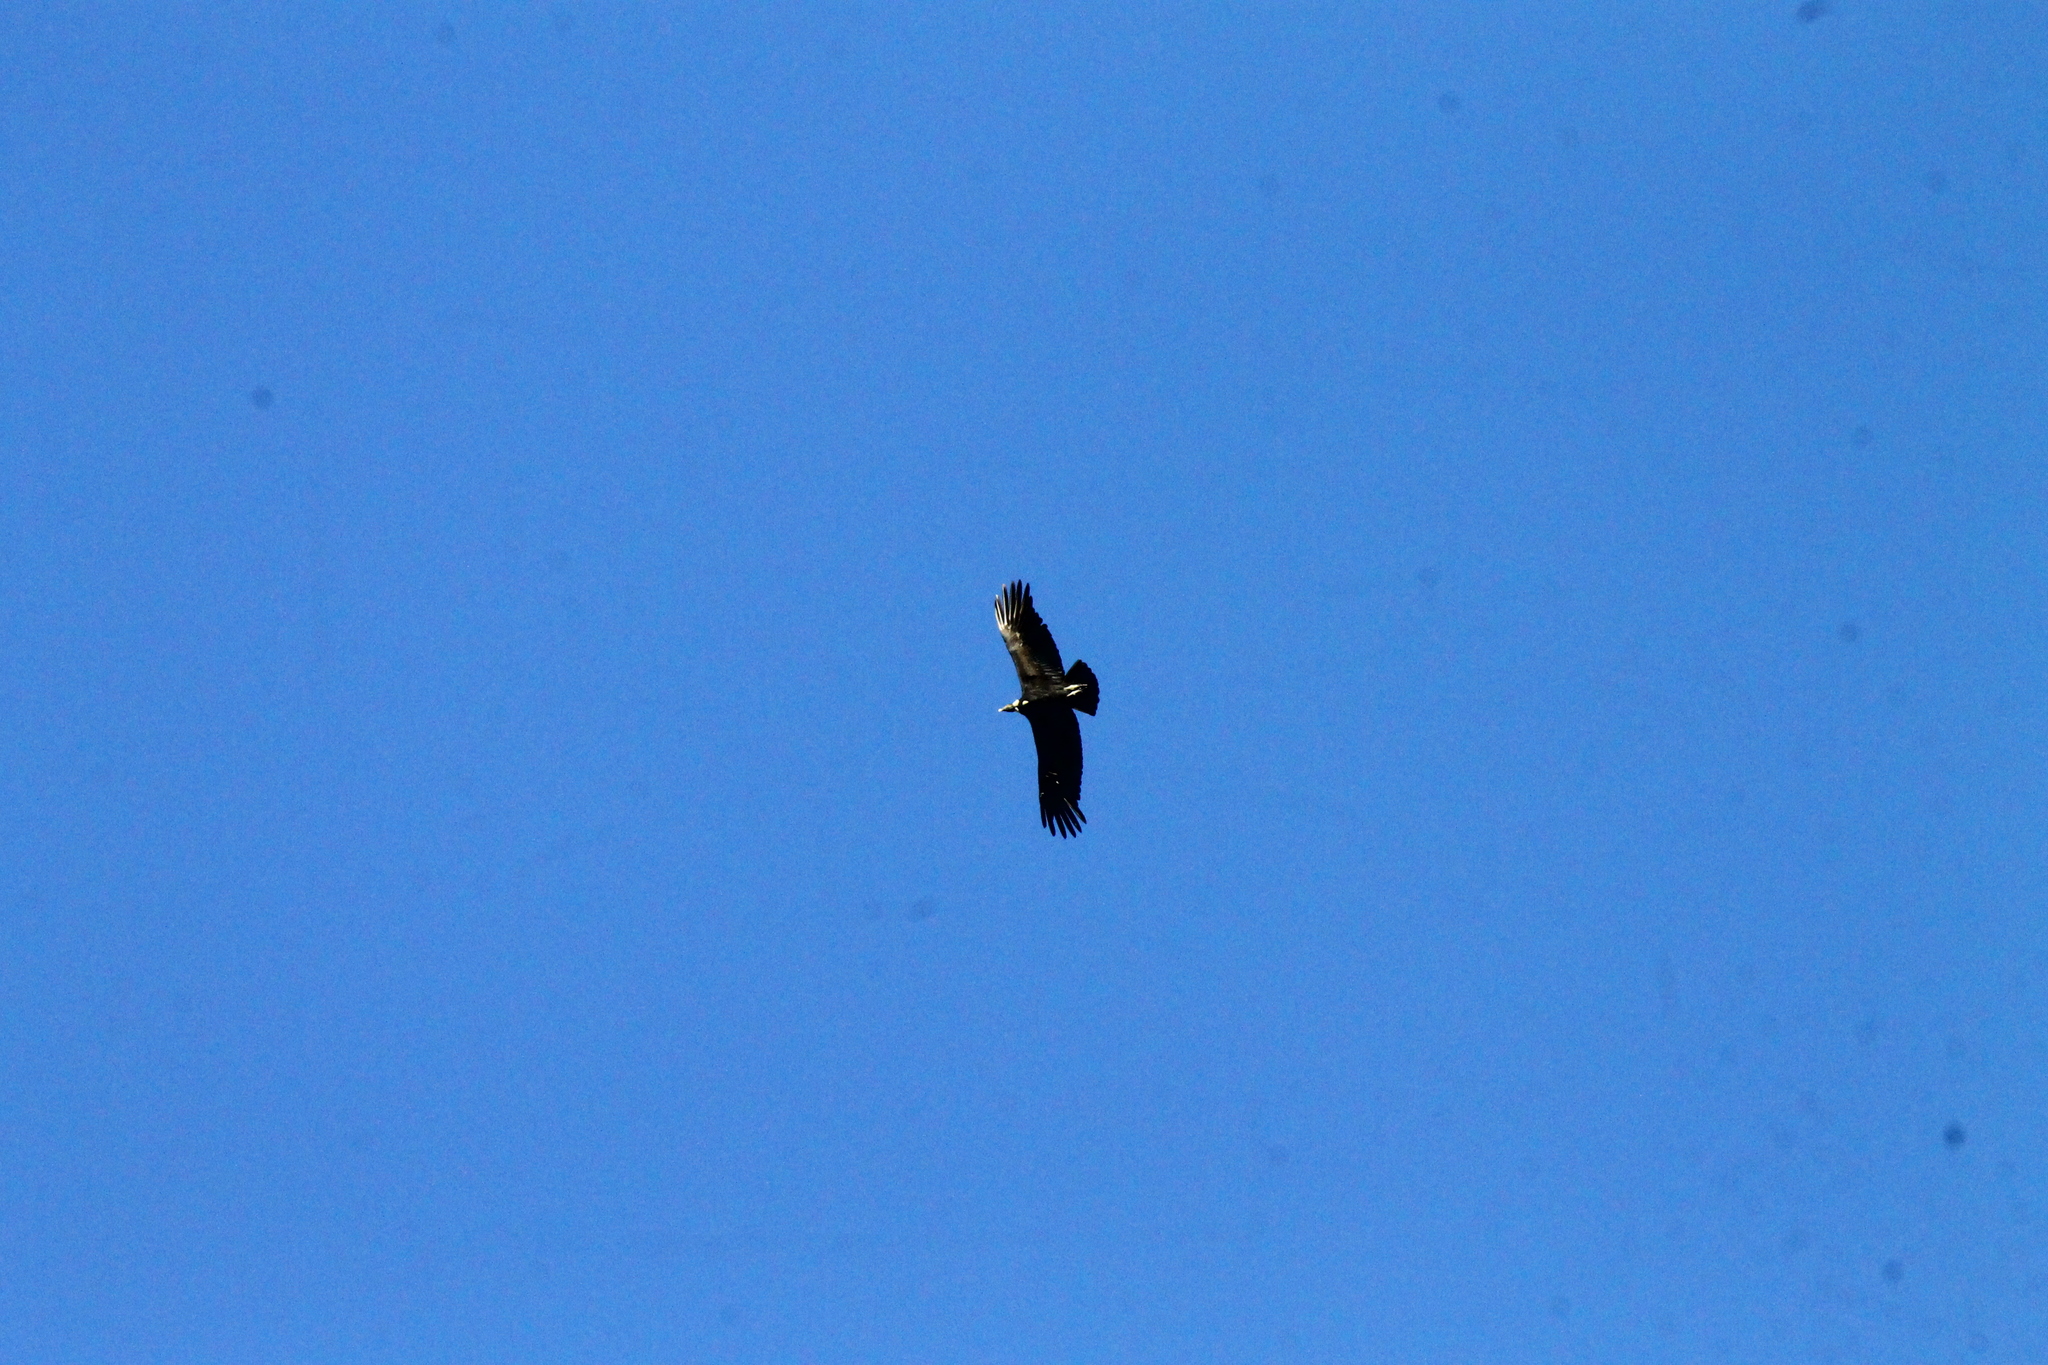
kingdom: Animalia
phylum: Chordata
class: Aves
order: Accipitriformes
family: Cathartidae
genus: Vultur
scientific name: Vultur gryphus
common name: Andean condor
